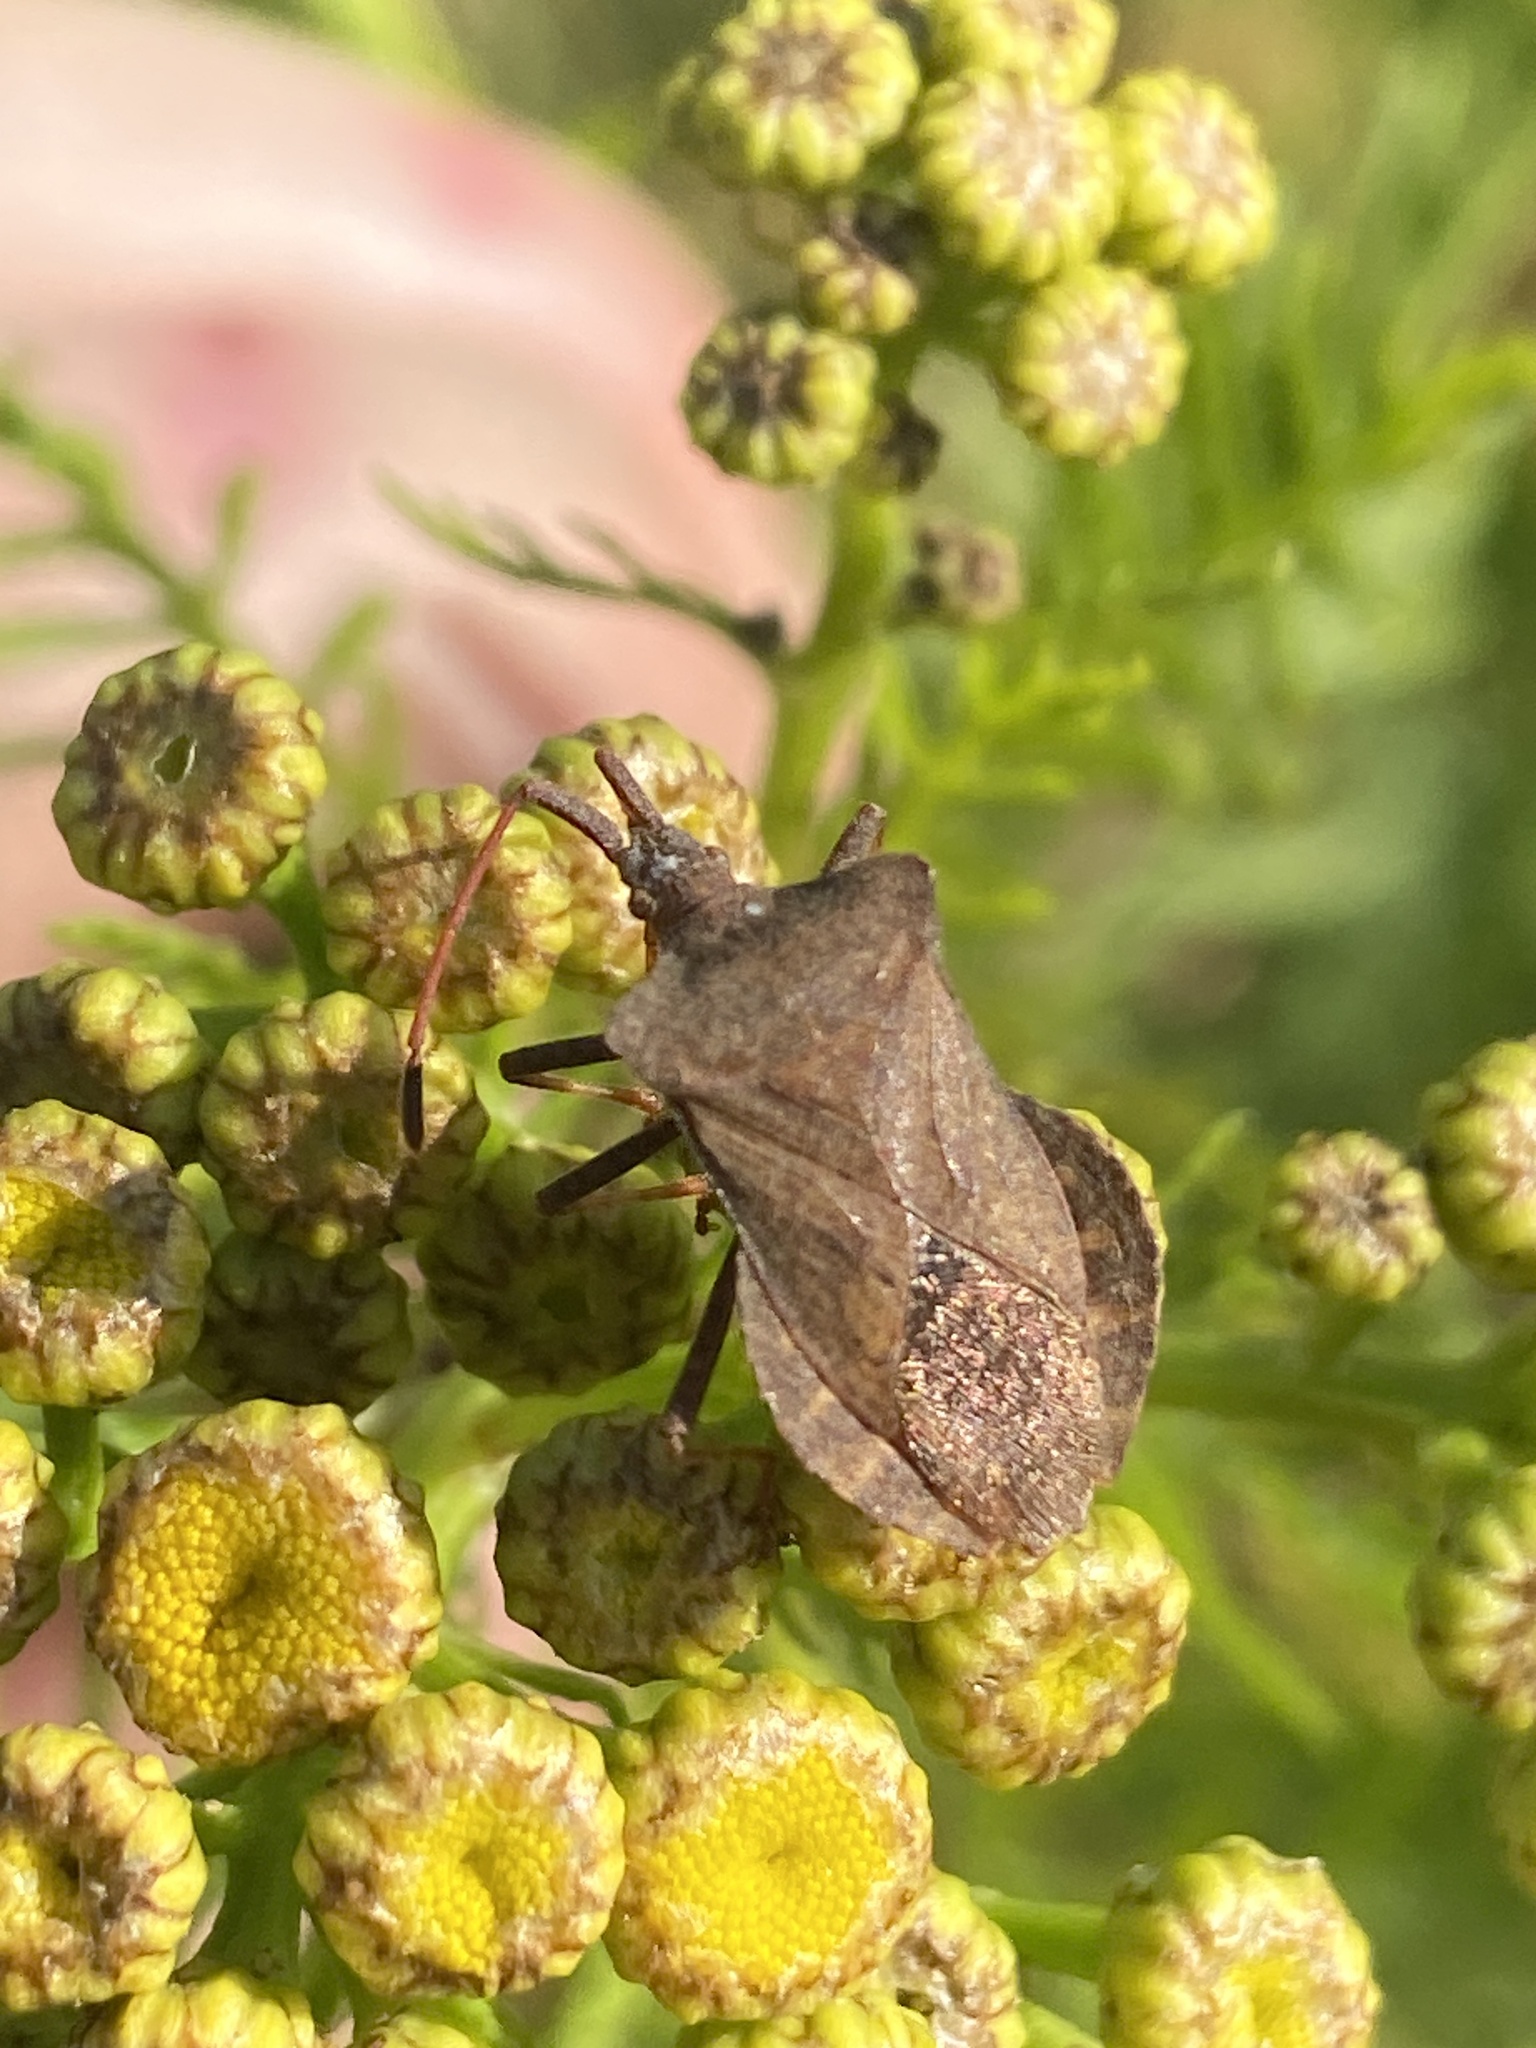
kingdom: Animalia
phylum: Arthropoda
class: Insecta
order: Hemiptera
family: Coreidae
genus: Coreus
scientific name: Coreus marginatus
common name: Dock bug
